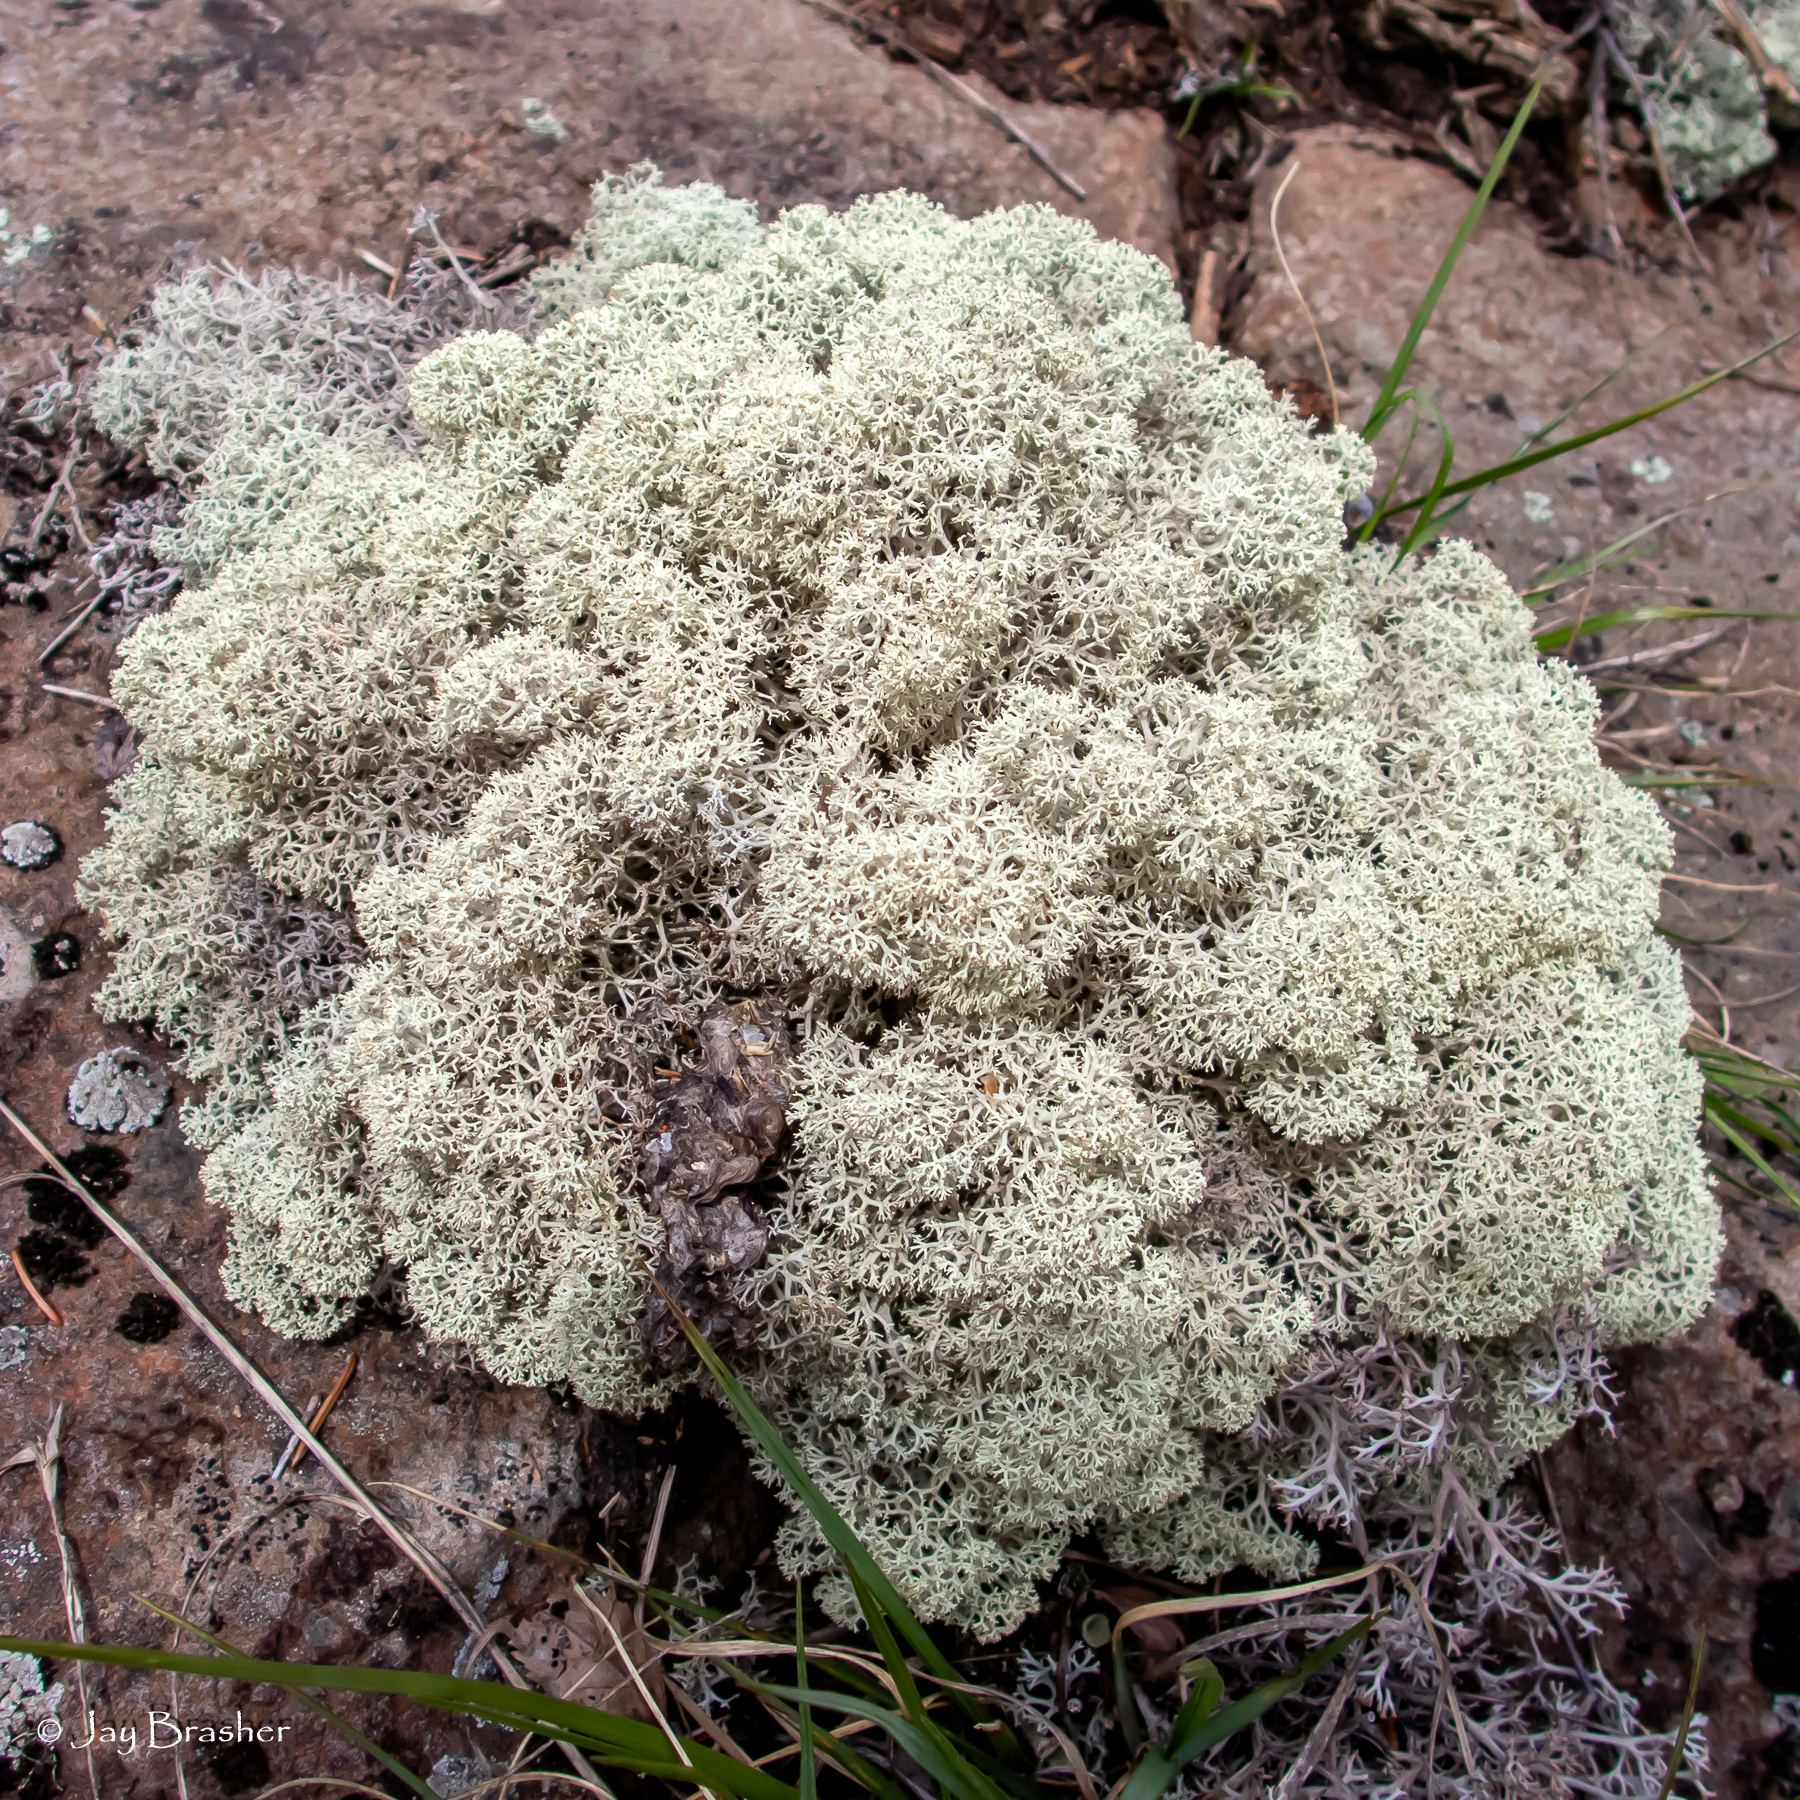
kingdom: Fungi
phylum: Ascomycota
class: Lecanoromycetes
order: Lecanorales
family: Cladoniaceae
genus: Cladonia
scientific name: Cladonia stellaris
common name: Star-tipped reindeer lichen
